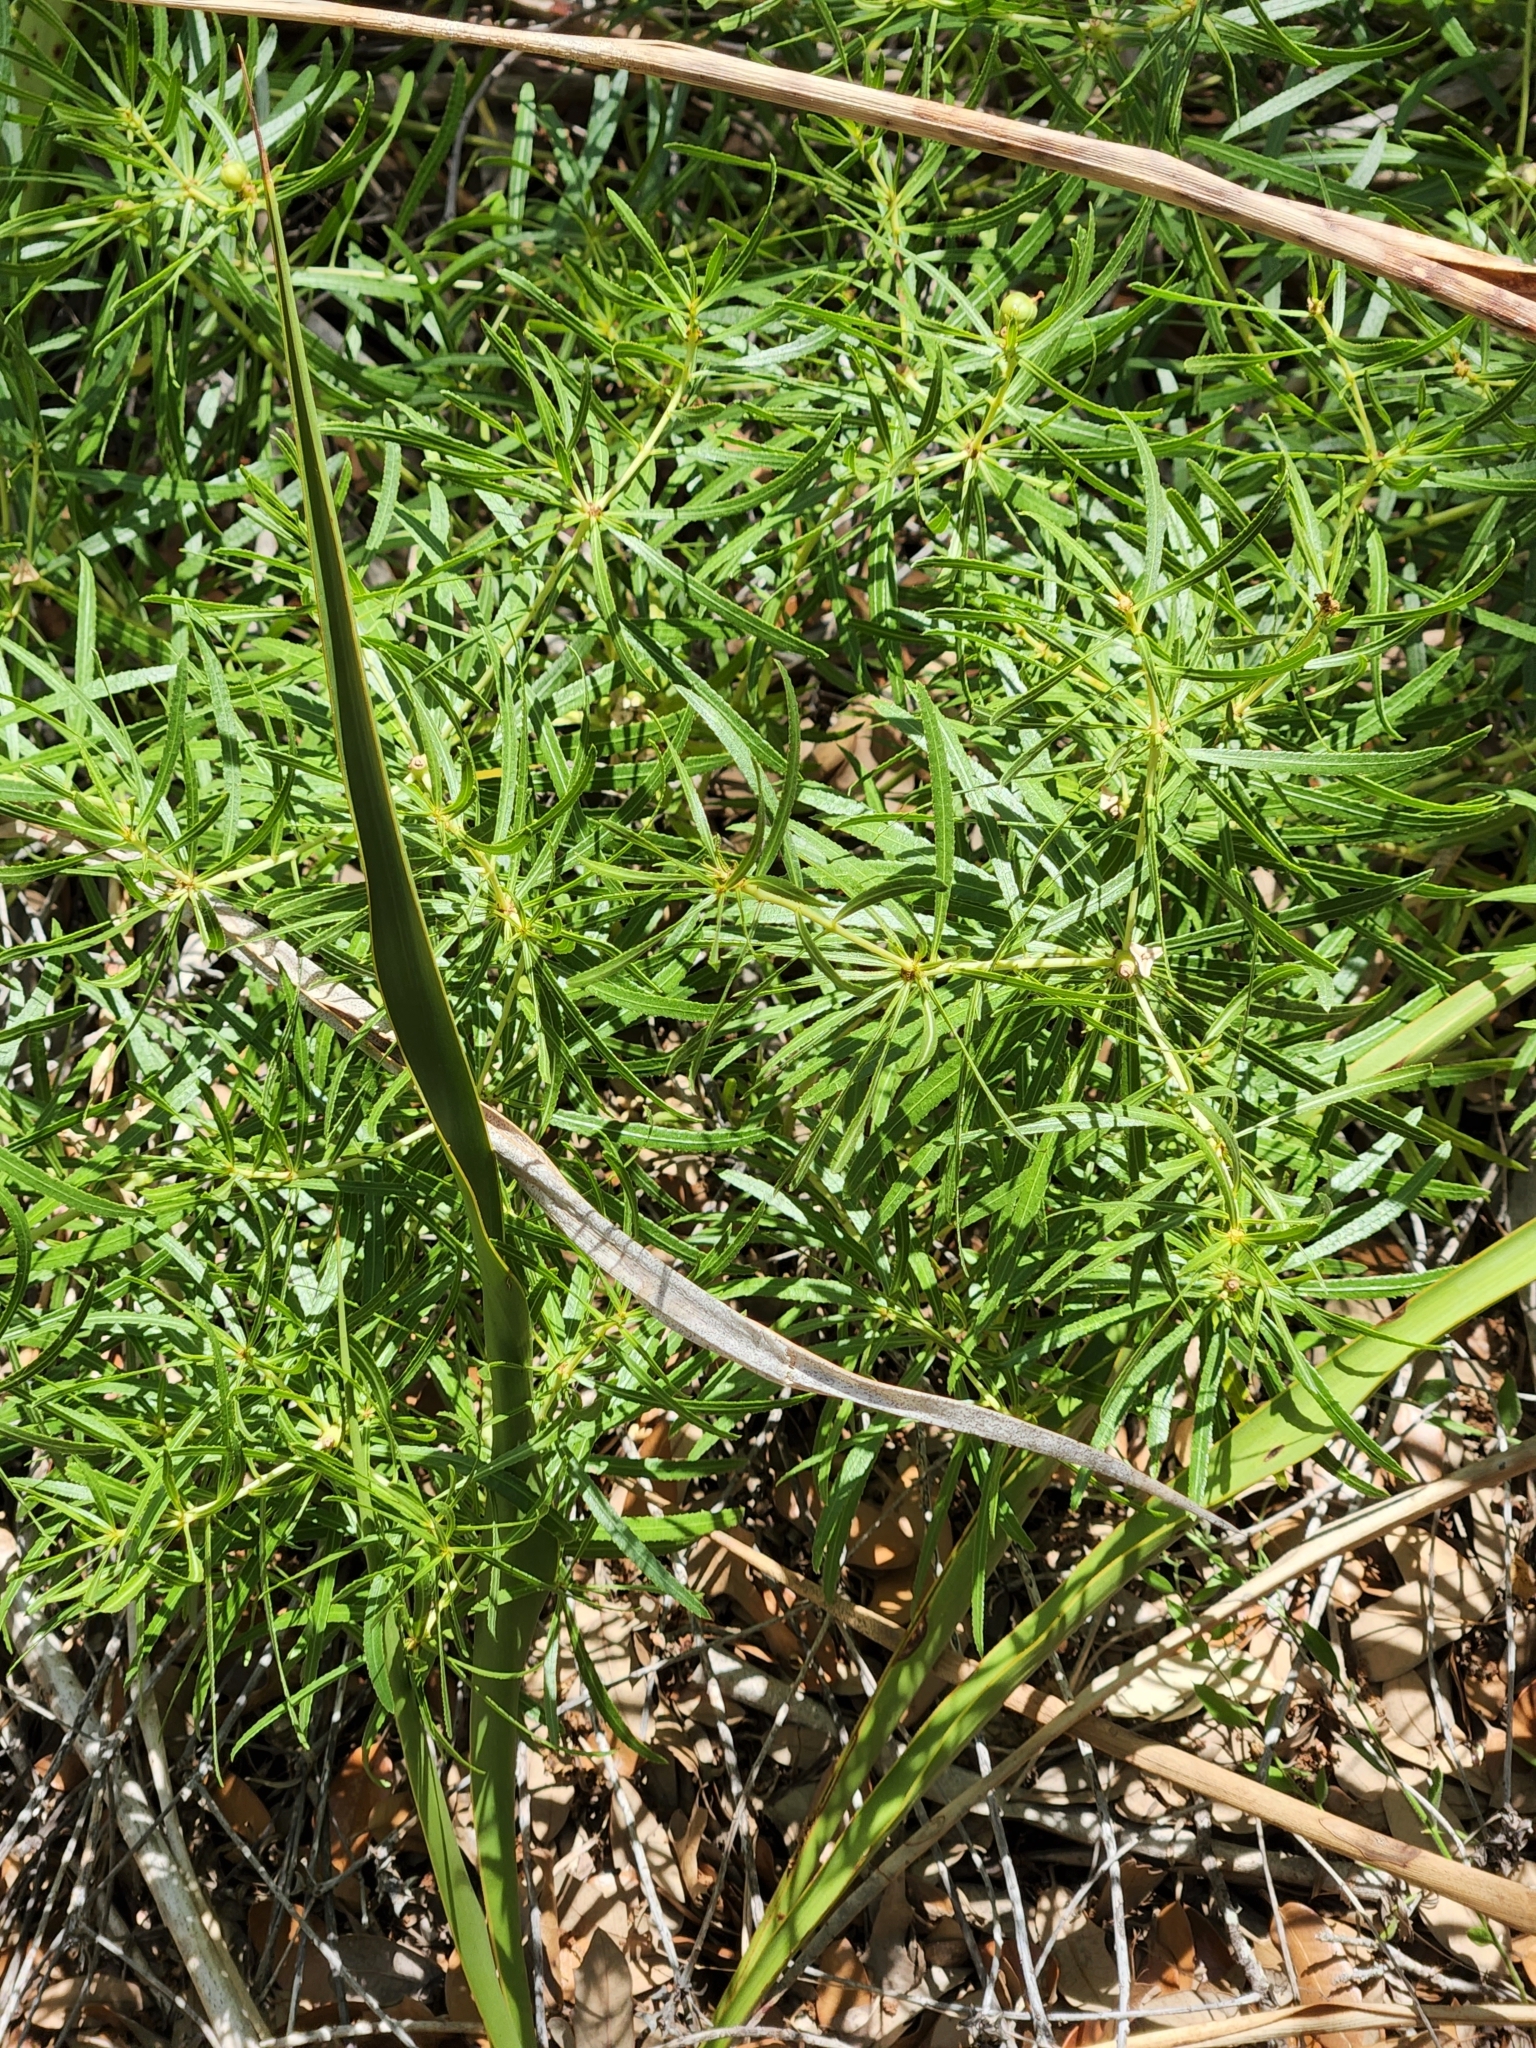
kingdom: Plantae
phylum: Tracheophyta
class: Magnoliopsida
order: Malpighiales
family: Euphorbiaceae
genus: Stillingia
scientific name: Stillingia texana
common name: Texas stillingia
